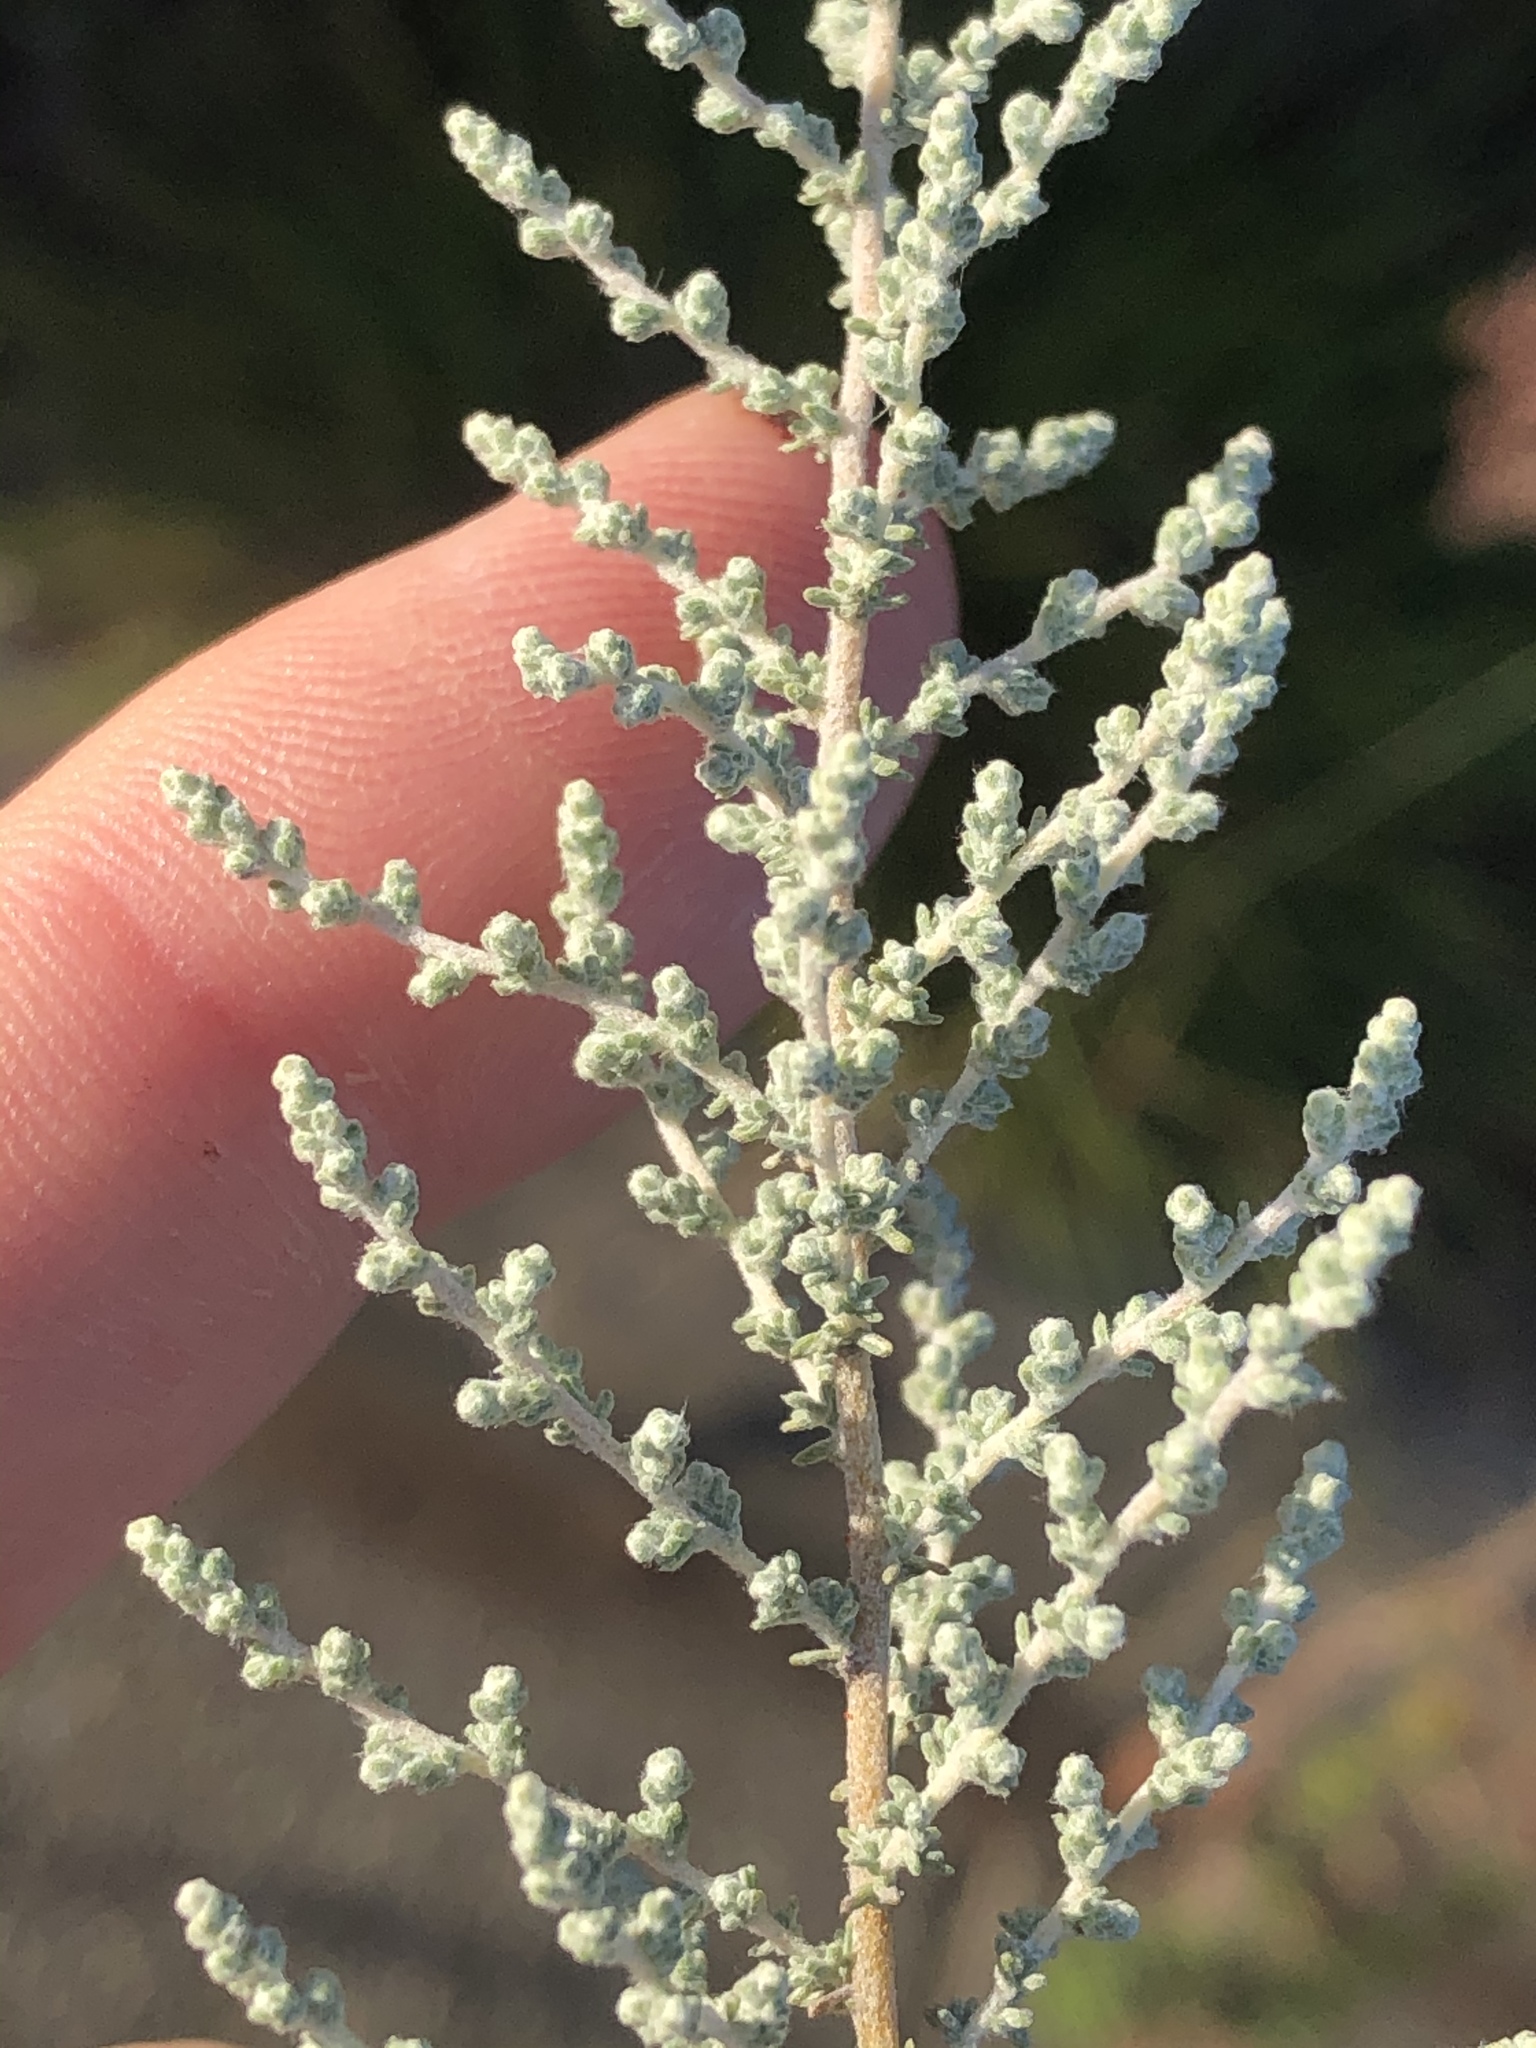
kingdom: Plantae
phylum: Tracheophyta
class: Magnoliopsida
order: Asterales
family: Asteraceae
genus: Seriphium
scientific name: Seriphium plumosum
